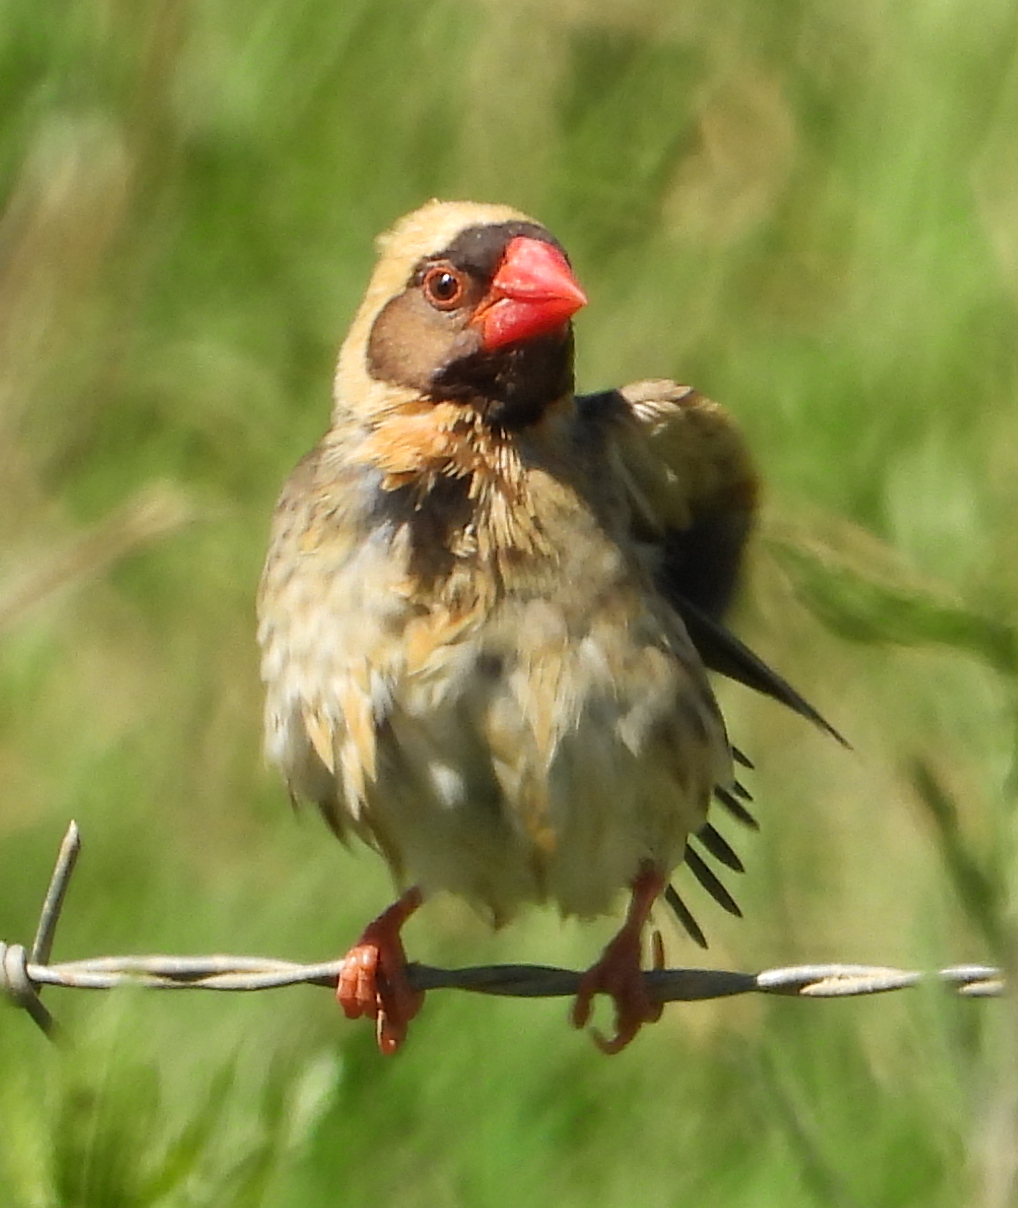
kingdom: Animalia
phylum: Chordata
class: Aves
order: Passeriformes
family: Ploceidae
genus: Quelea
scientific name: Quelea quelea
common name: Red-billed quelea
